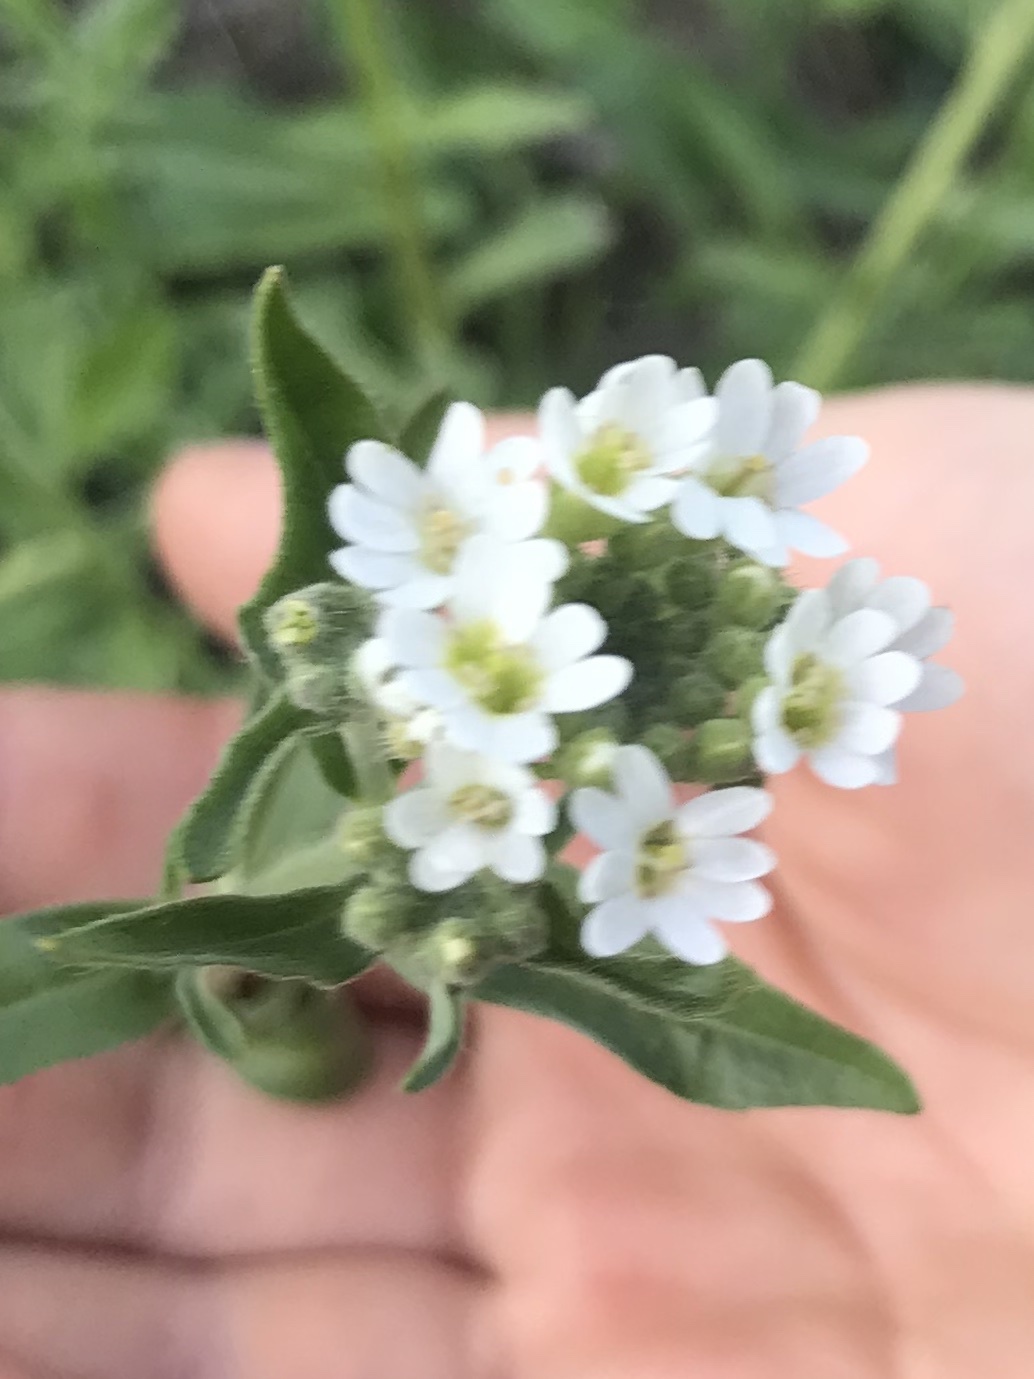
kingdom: Plantae
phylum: Tracheophyta
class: Magnoliopsida
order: Brassicales
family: Brassicaceae
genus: Berteroa
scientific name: Berteroa incana
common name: Hoary alison
